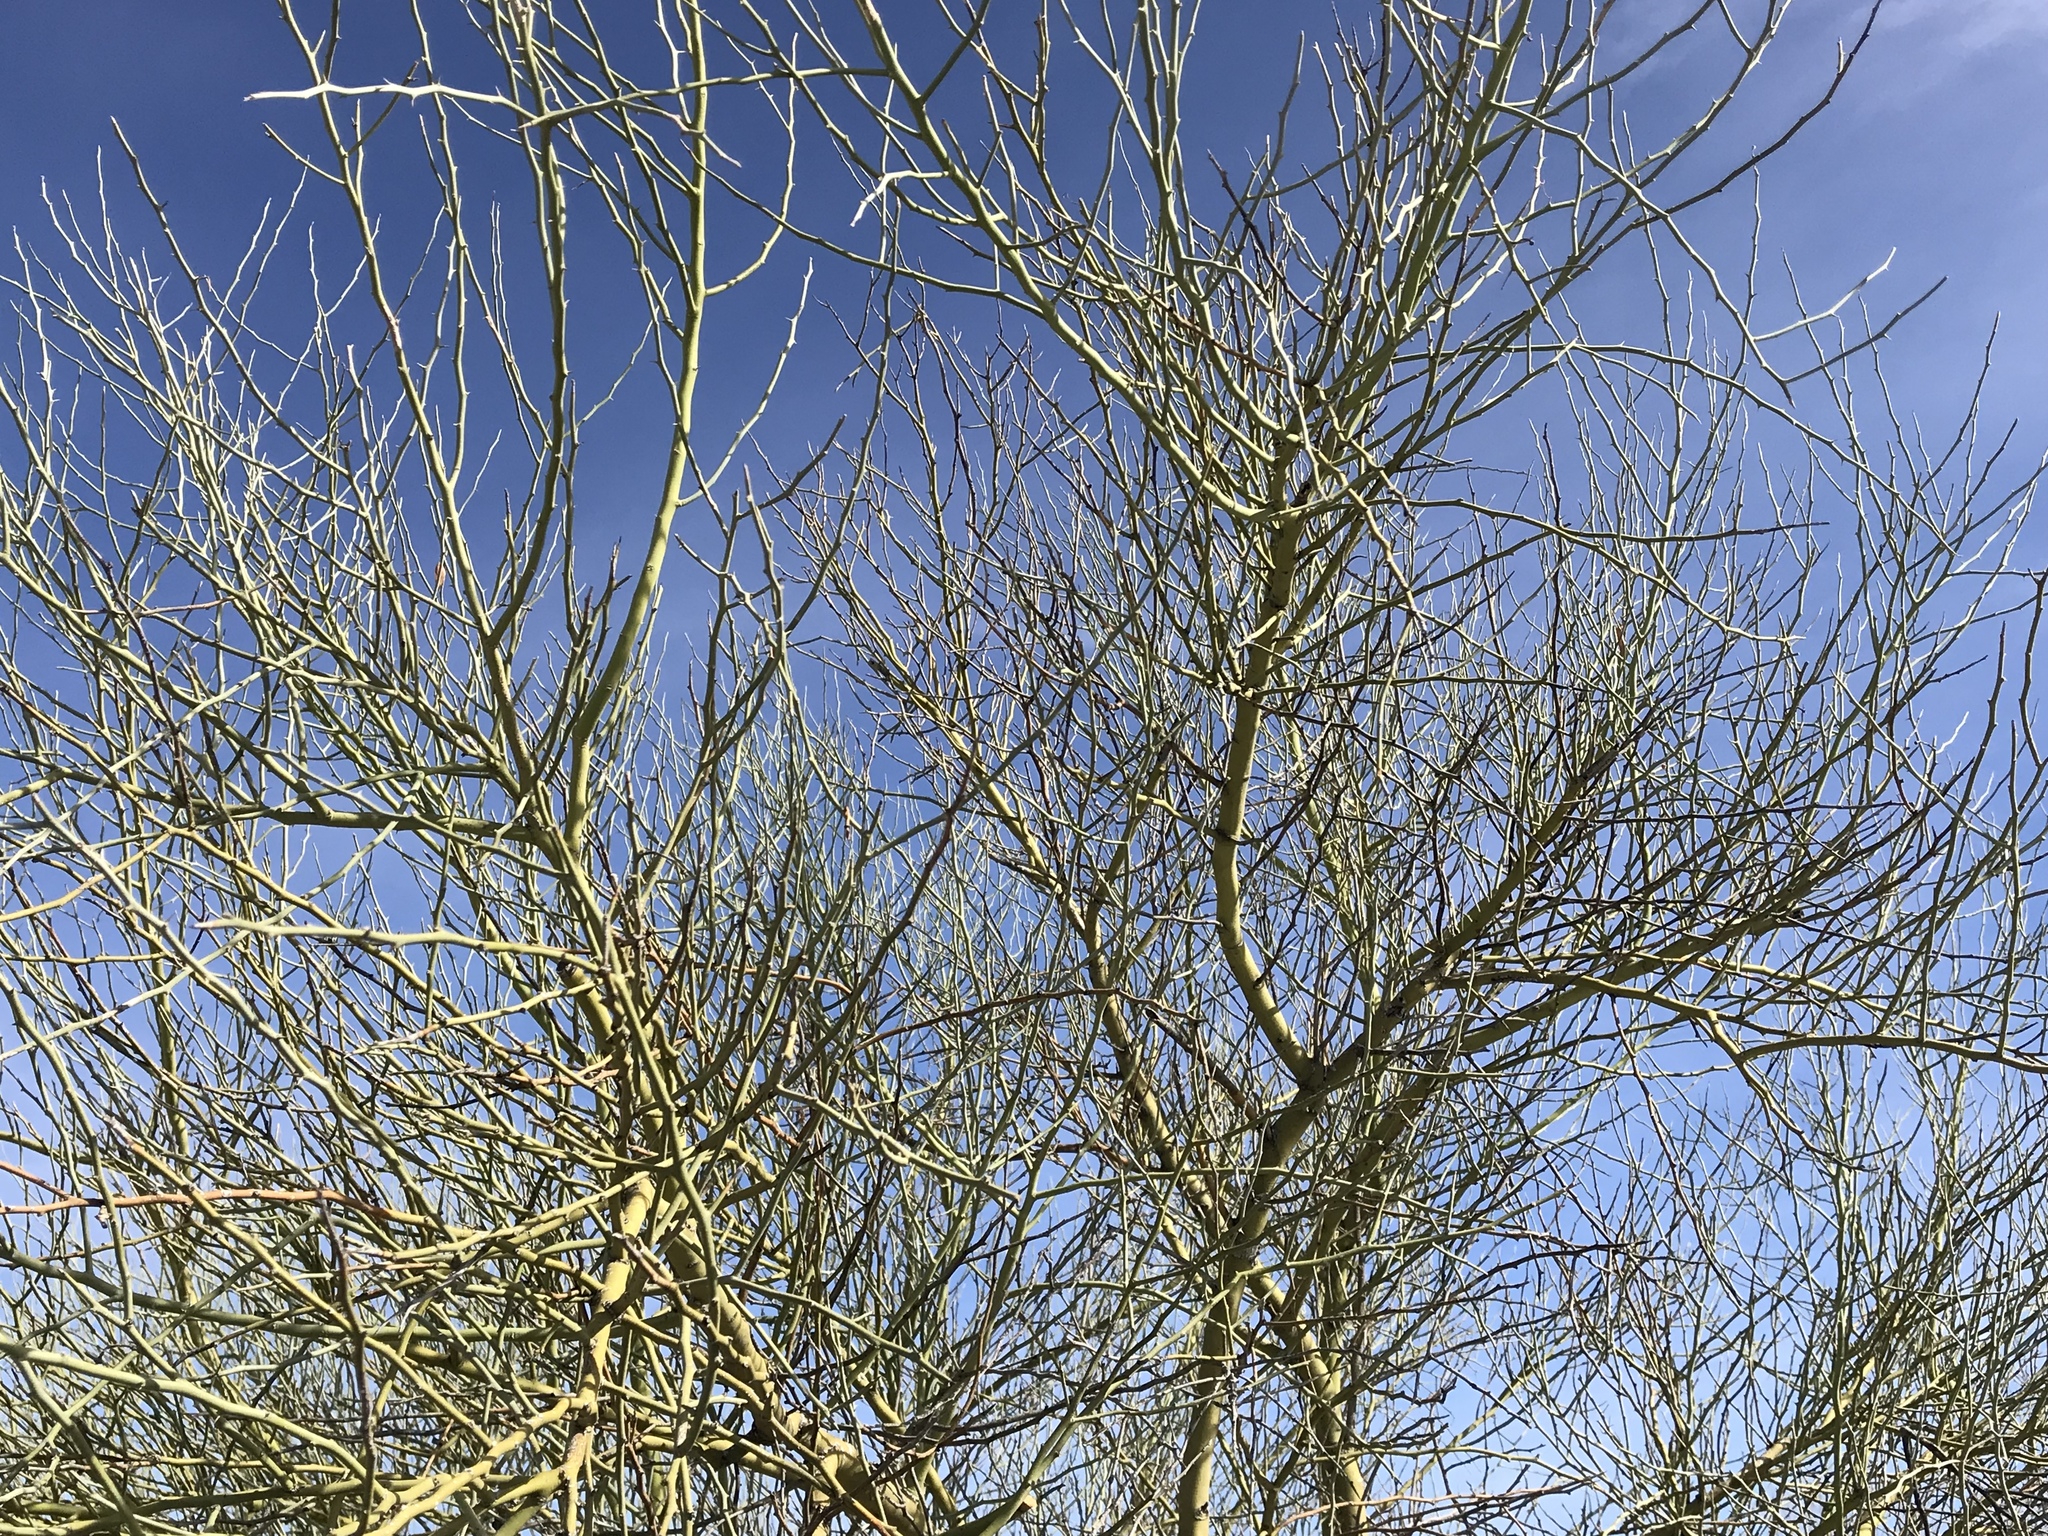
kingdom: Plantae
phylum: Tracheophyta
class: Magnoliopsida
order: Fabales
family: Fabaceae
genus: Parkinsonia
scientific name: Parkinsonia florida
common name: Blue paloverde
